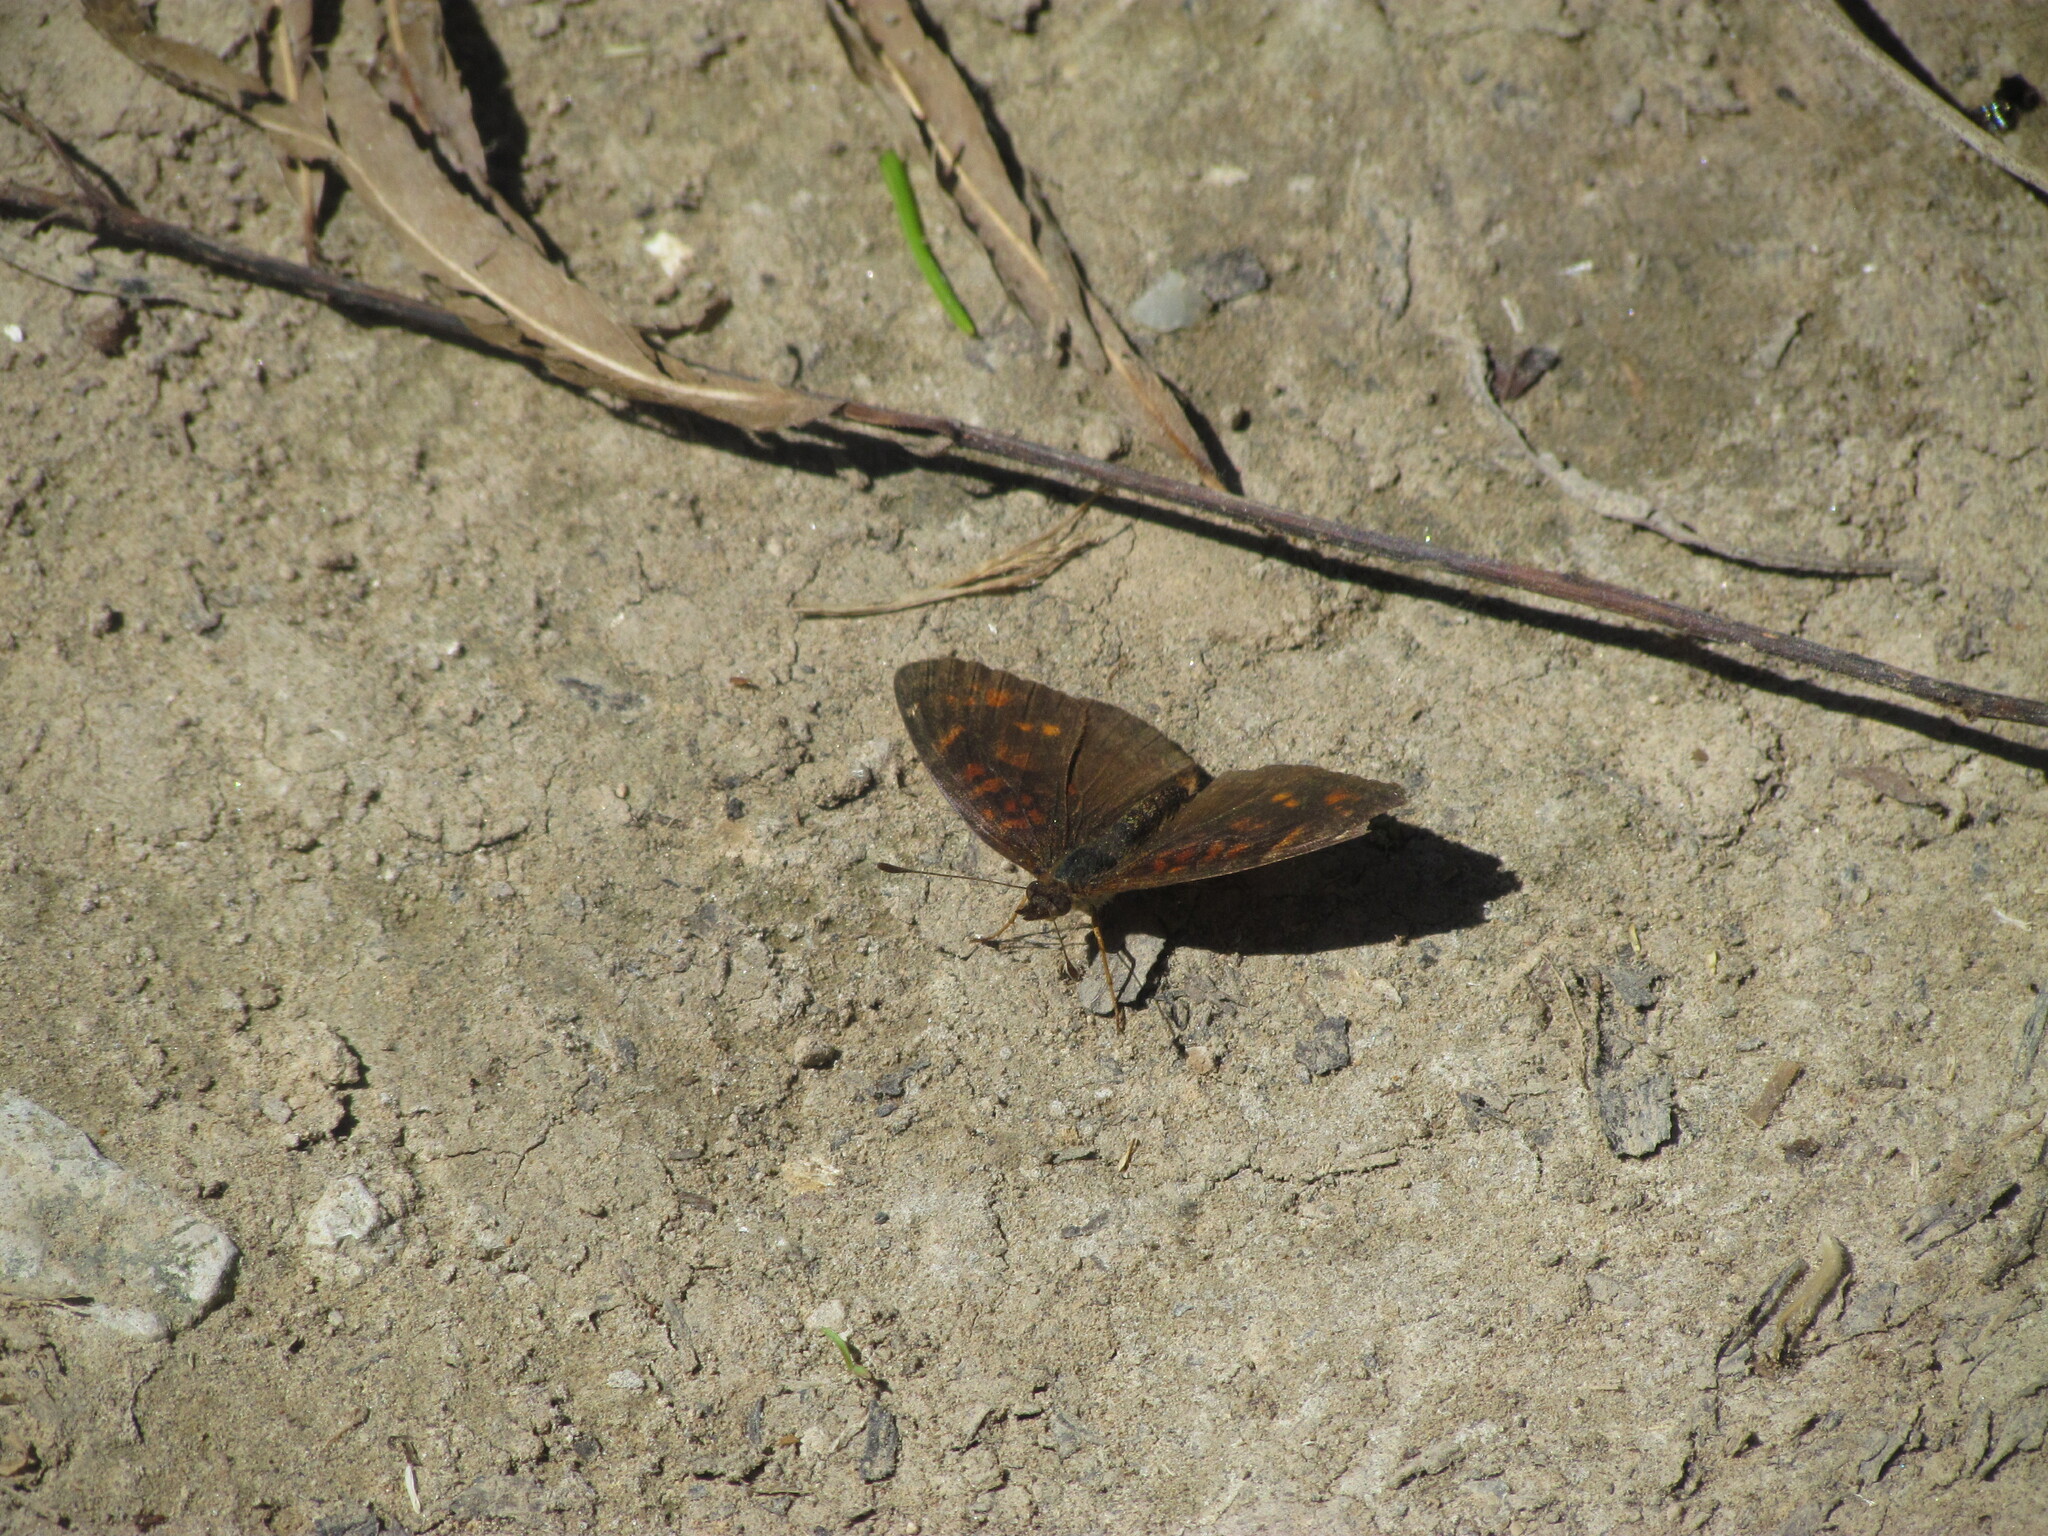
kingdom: Animalia
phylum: Arthropoda
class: Insecta
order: Lepidoptera
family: Nymphalidae
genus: Ortilia
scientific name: Ortilia velica
